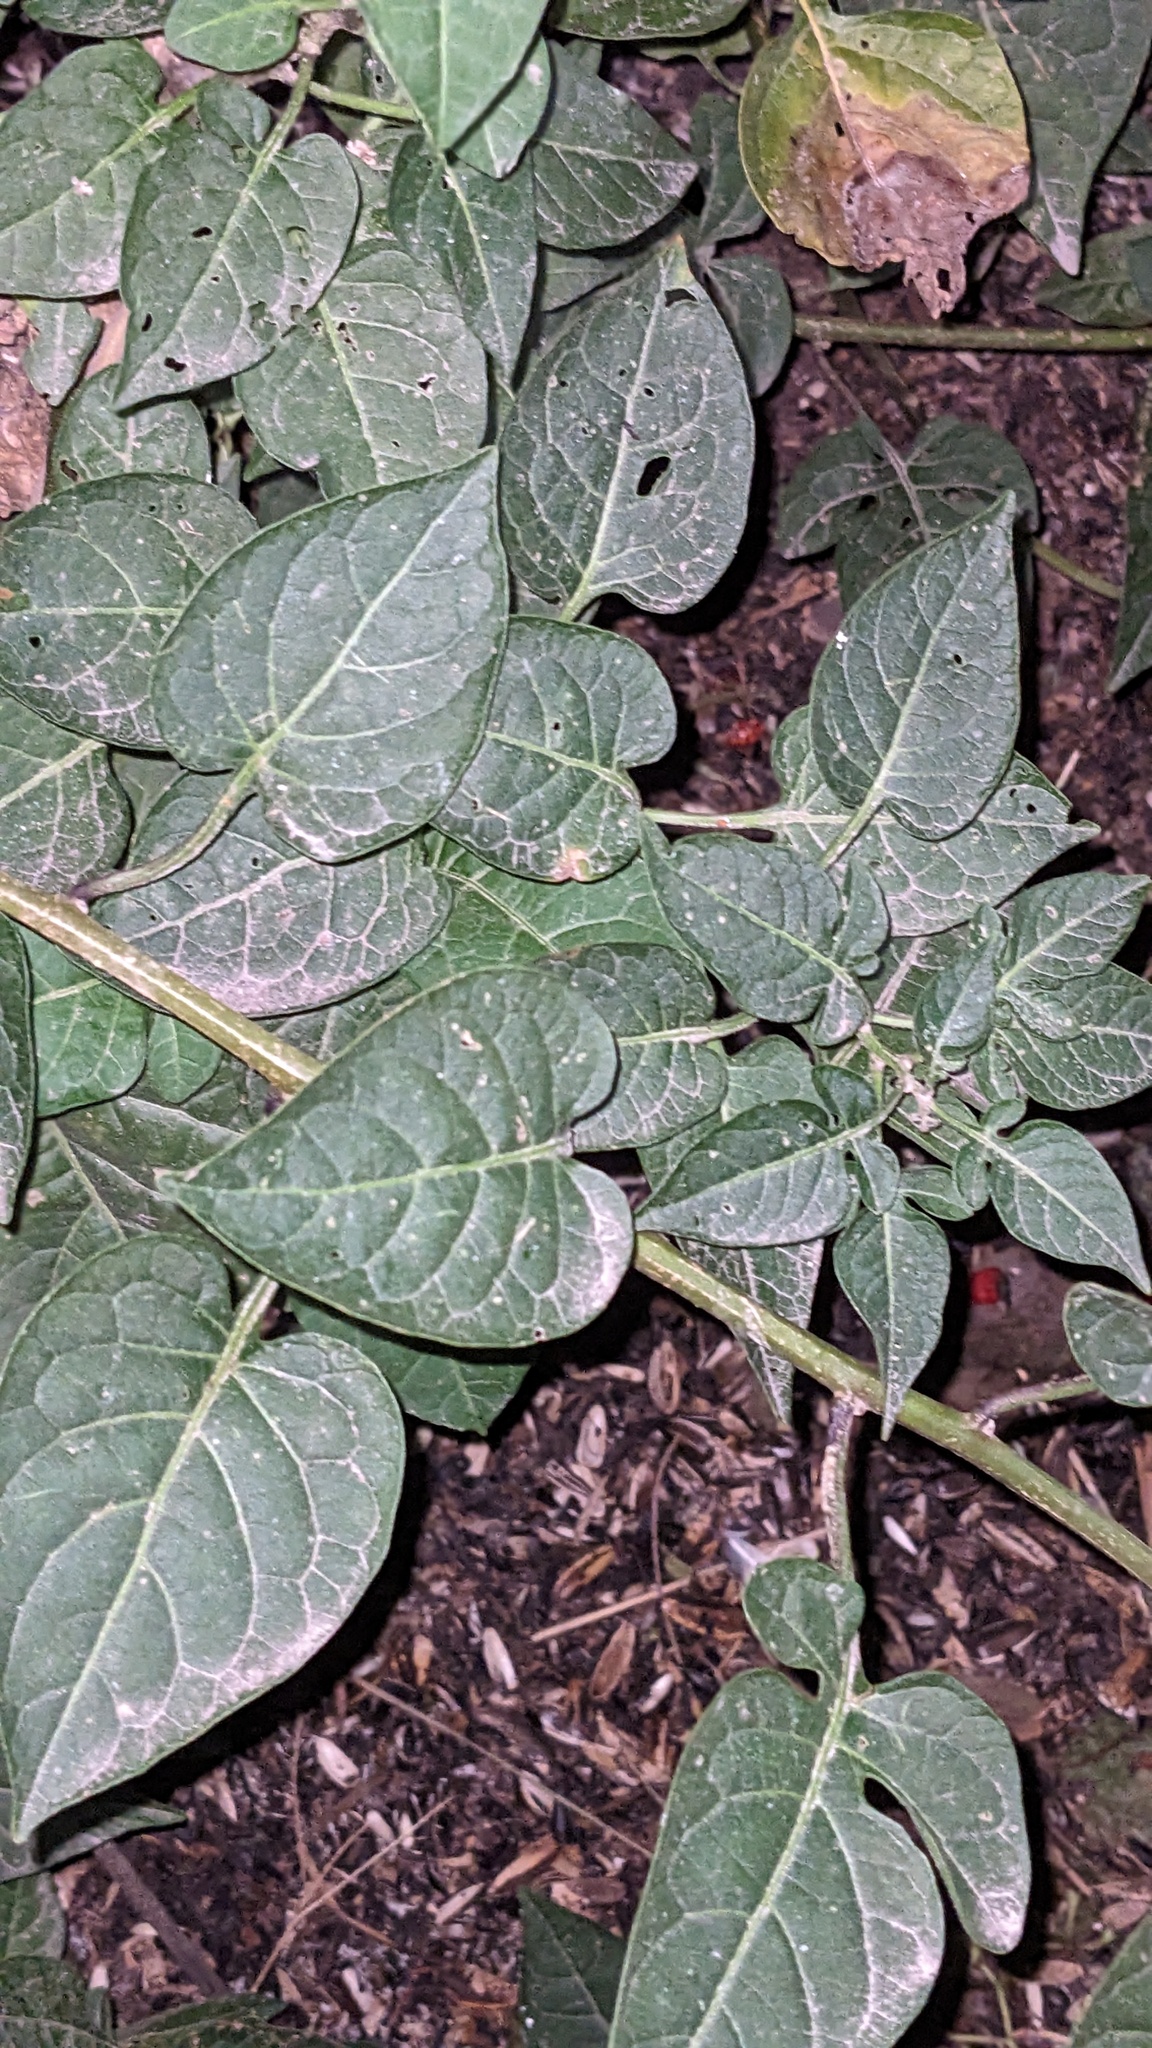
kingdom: Plantae
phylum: Tracheophyta
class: Magnoliopsida
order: Solanales
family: Solanaceae
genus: Solanum
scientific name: Solanum dulcamara
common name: Climbing nightshade
